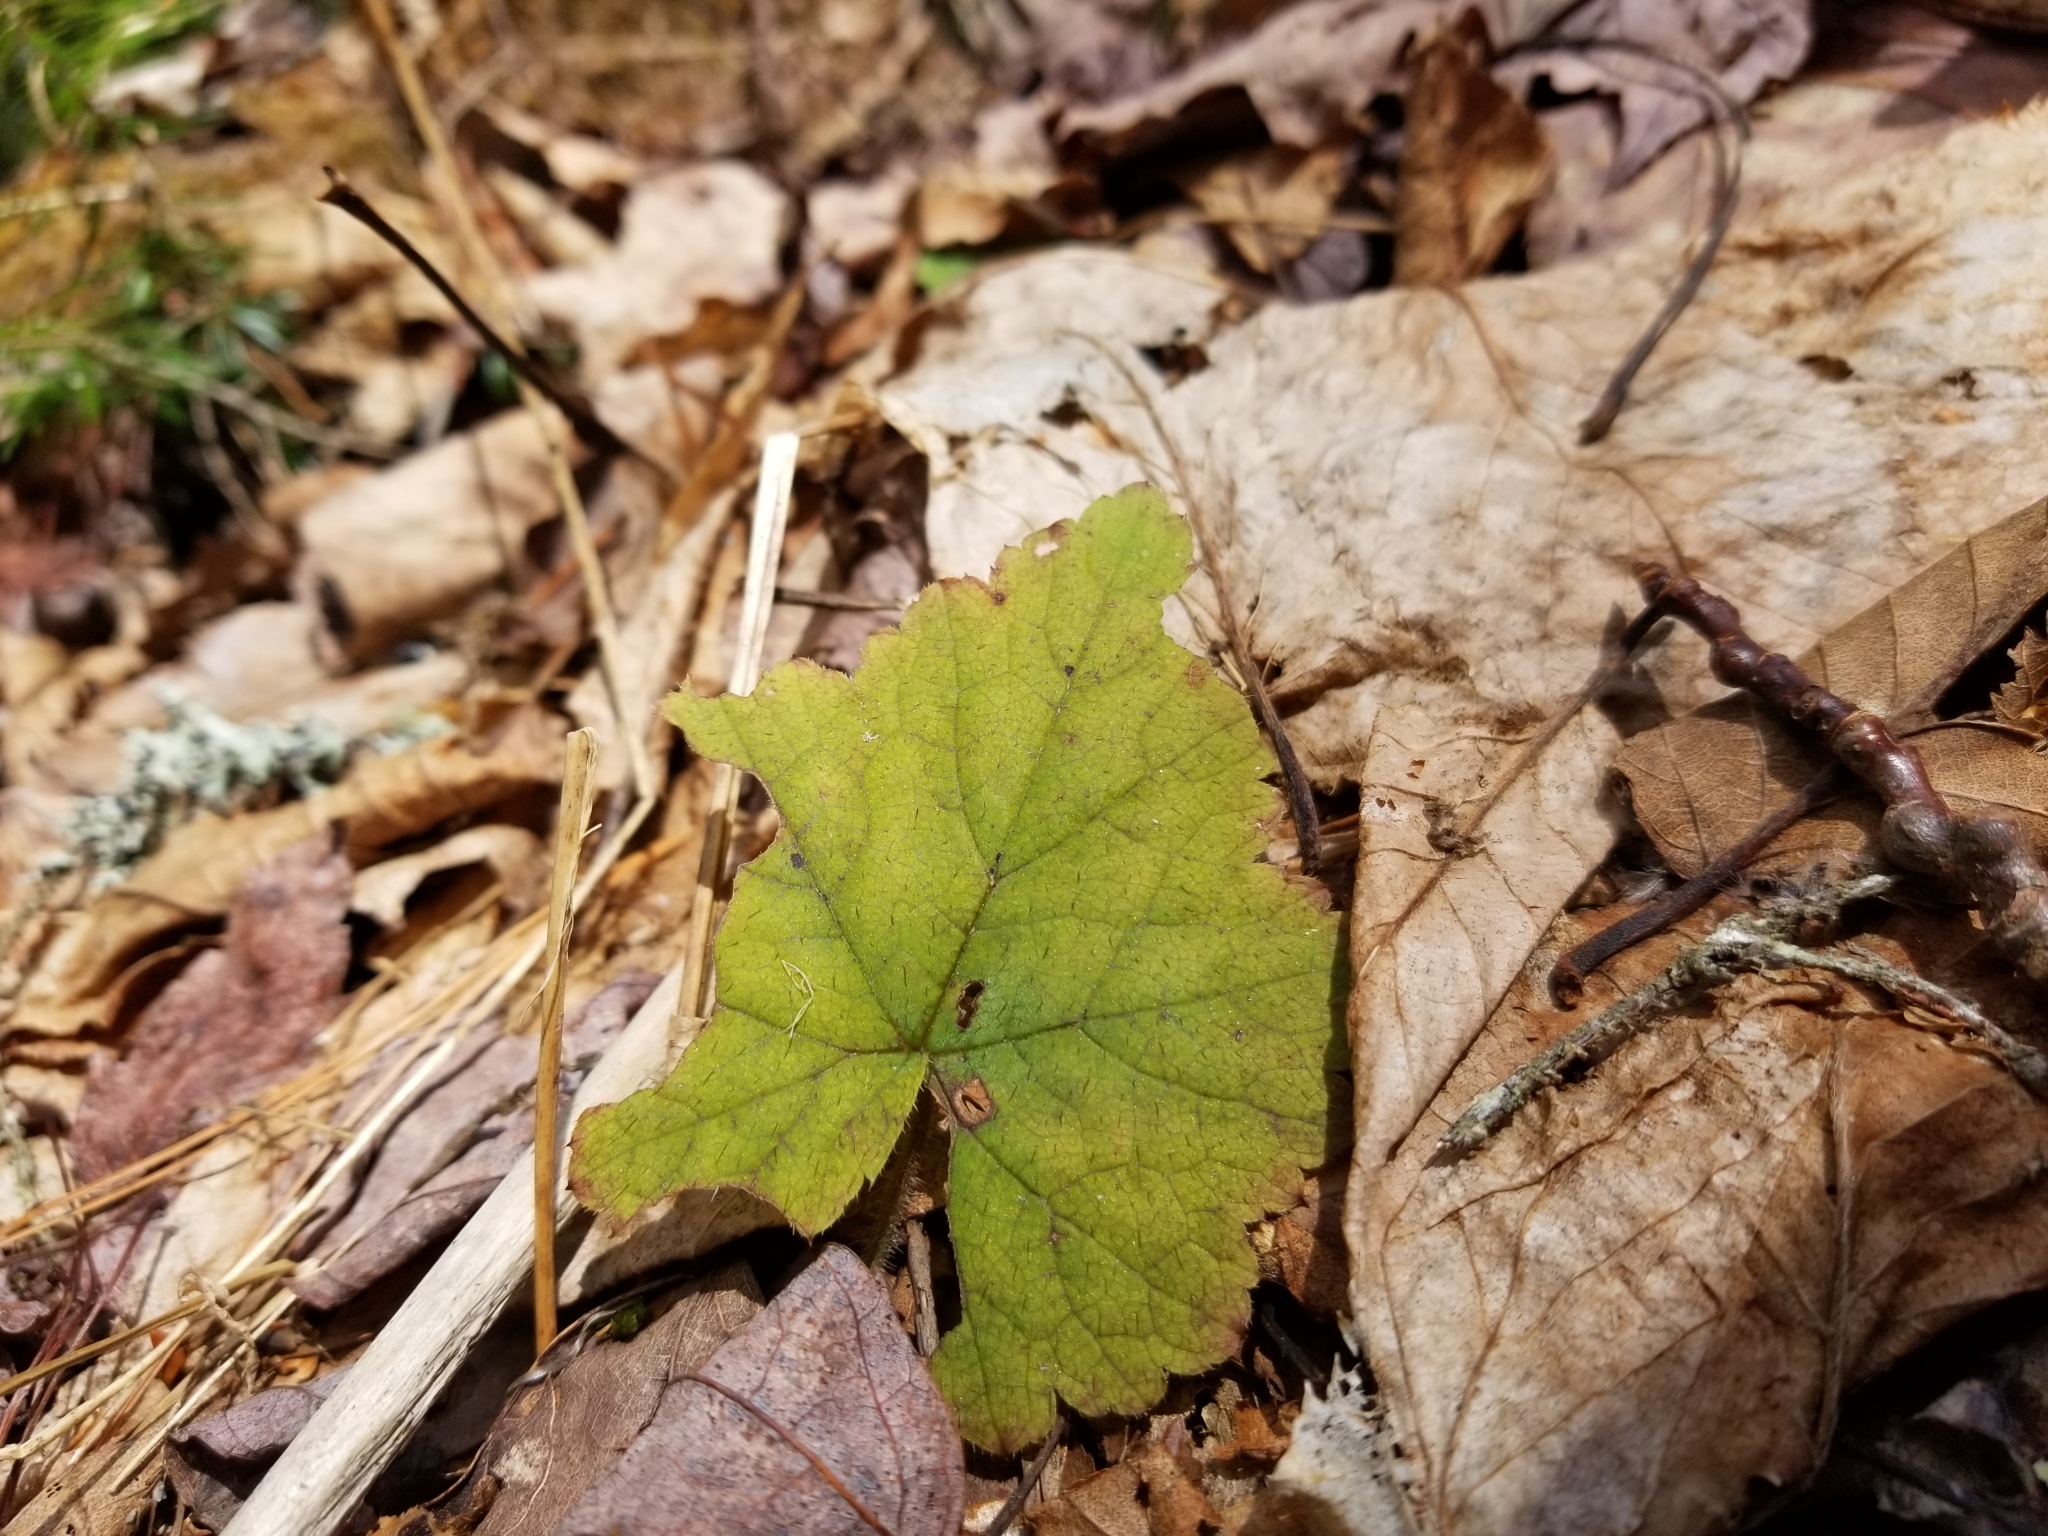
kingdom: Plantae
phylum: Tracheophyta
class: Magnoliopsida
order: Saxifragales
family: Saxifragaceae
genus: Tiarella
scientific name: Tiarella stolonifera
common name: Stoloniferous foamflower
